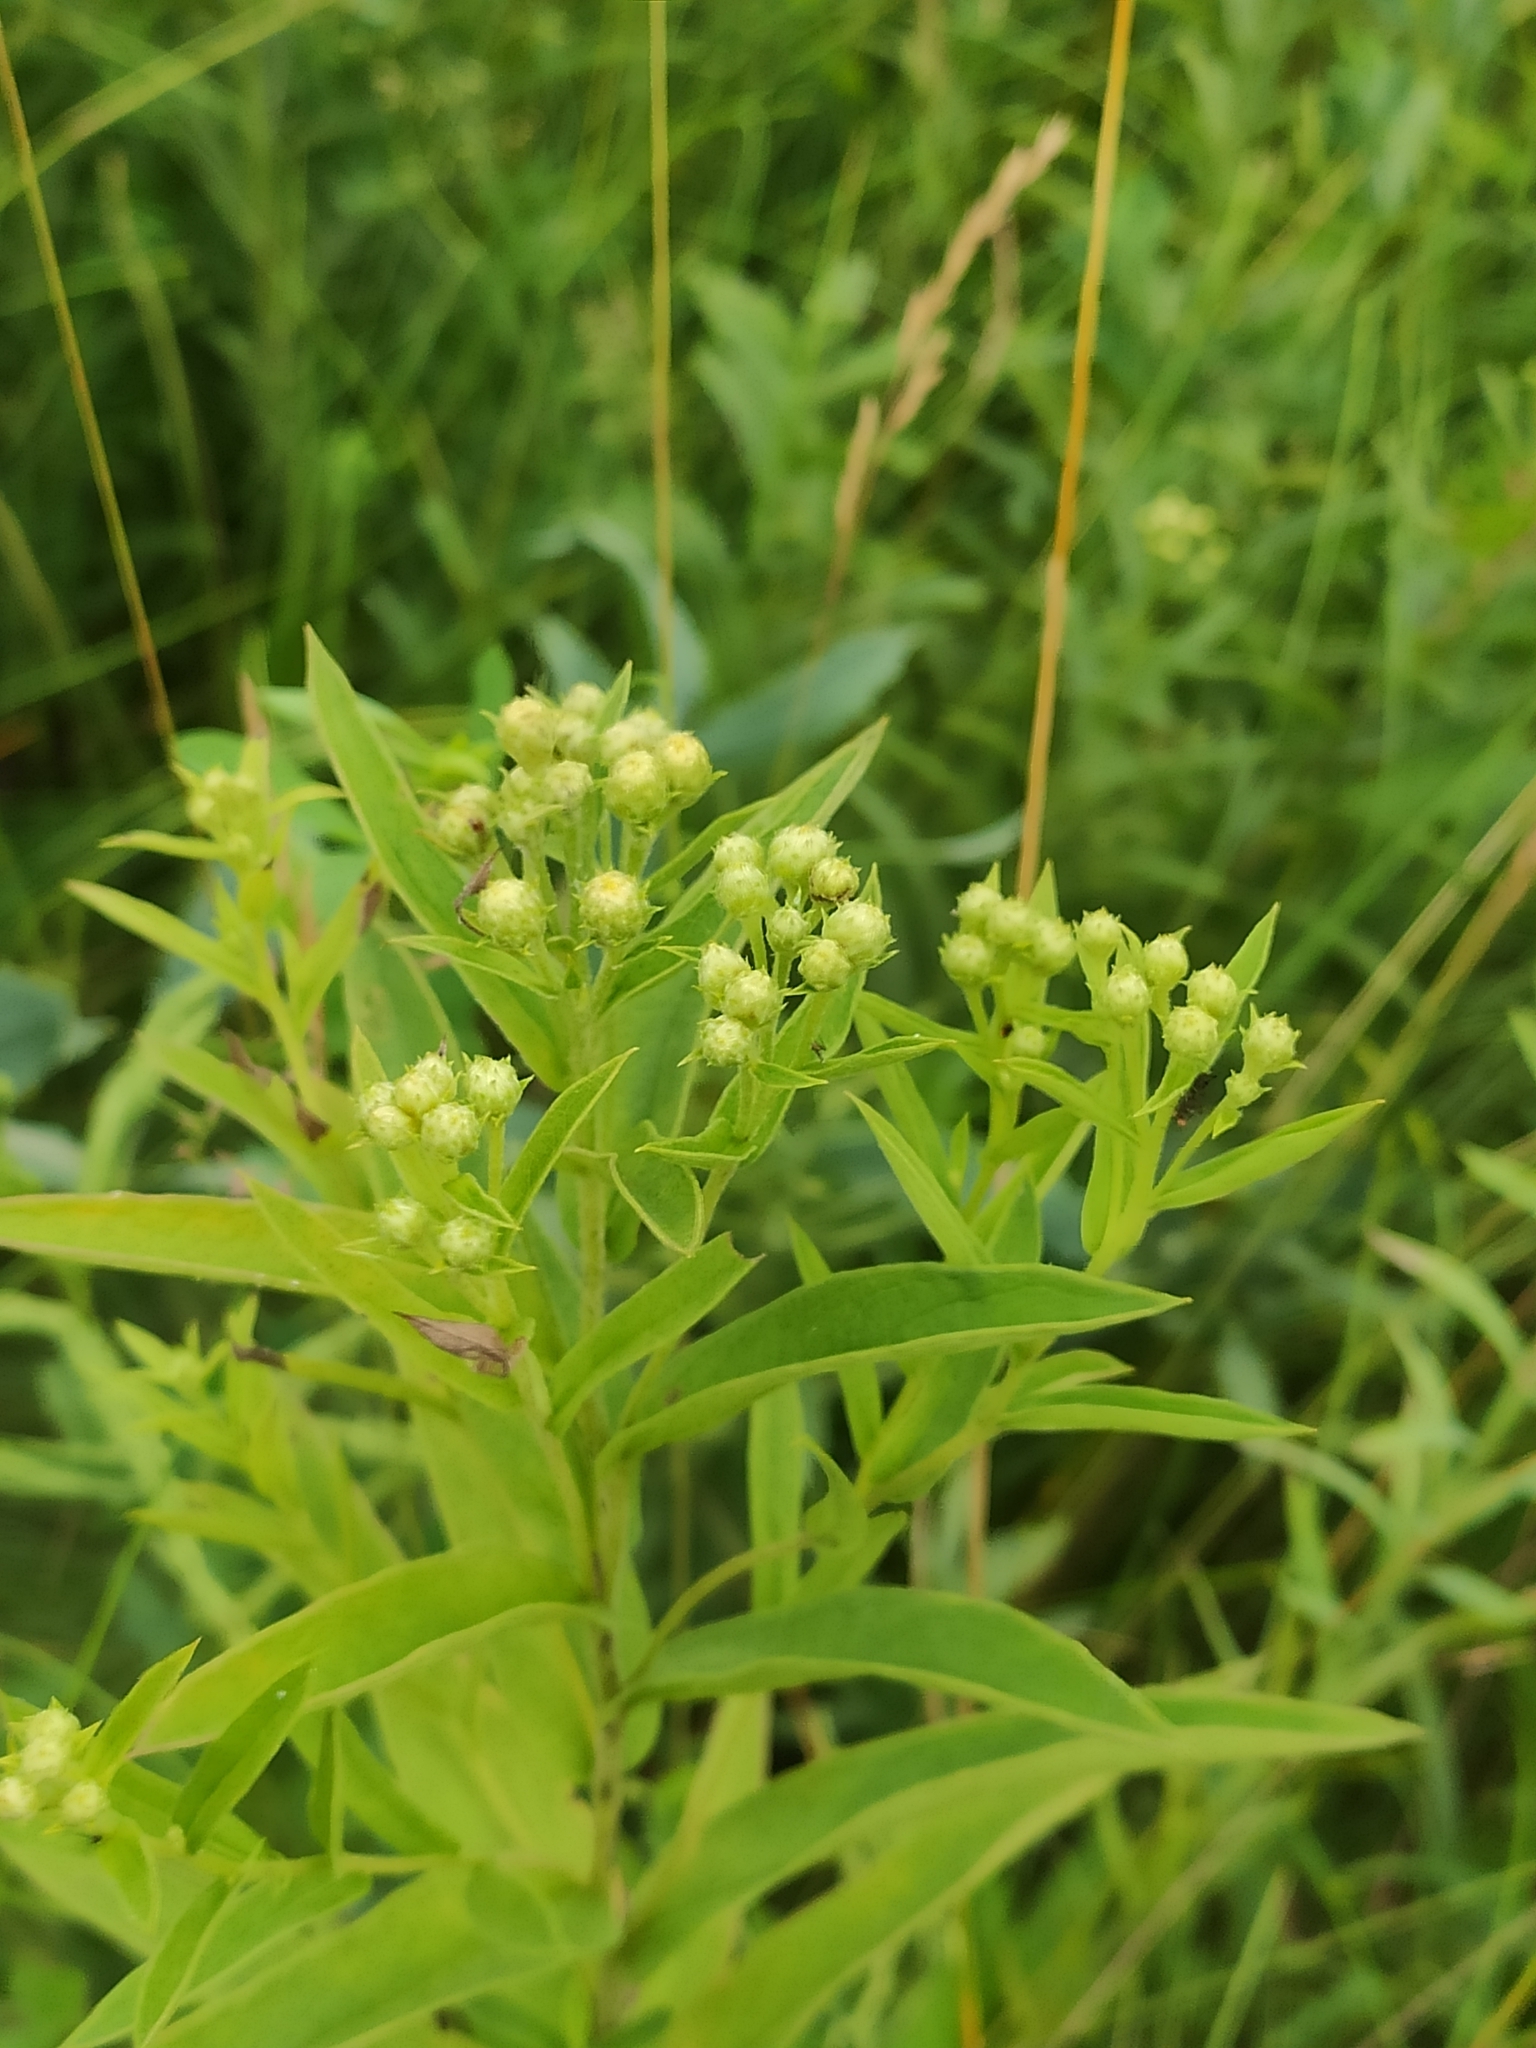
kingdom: Plantae
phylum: Tracheophyta
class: Magnoliopsida
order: Asterales
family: Asteraceae
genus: Pentanema
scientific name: Pentanema germanicum
